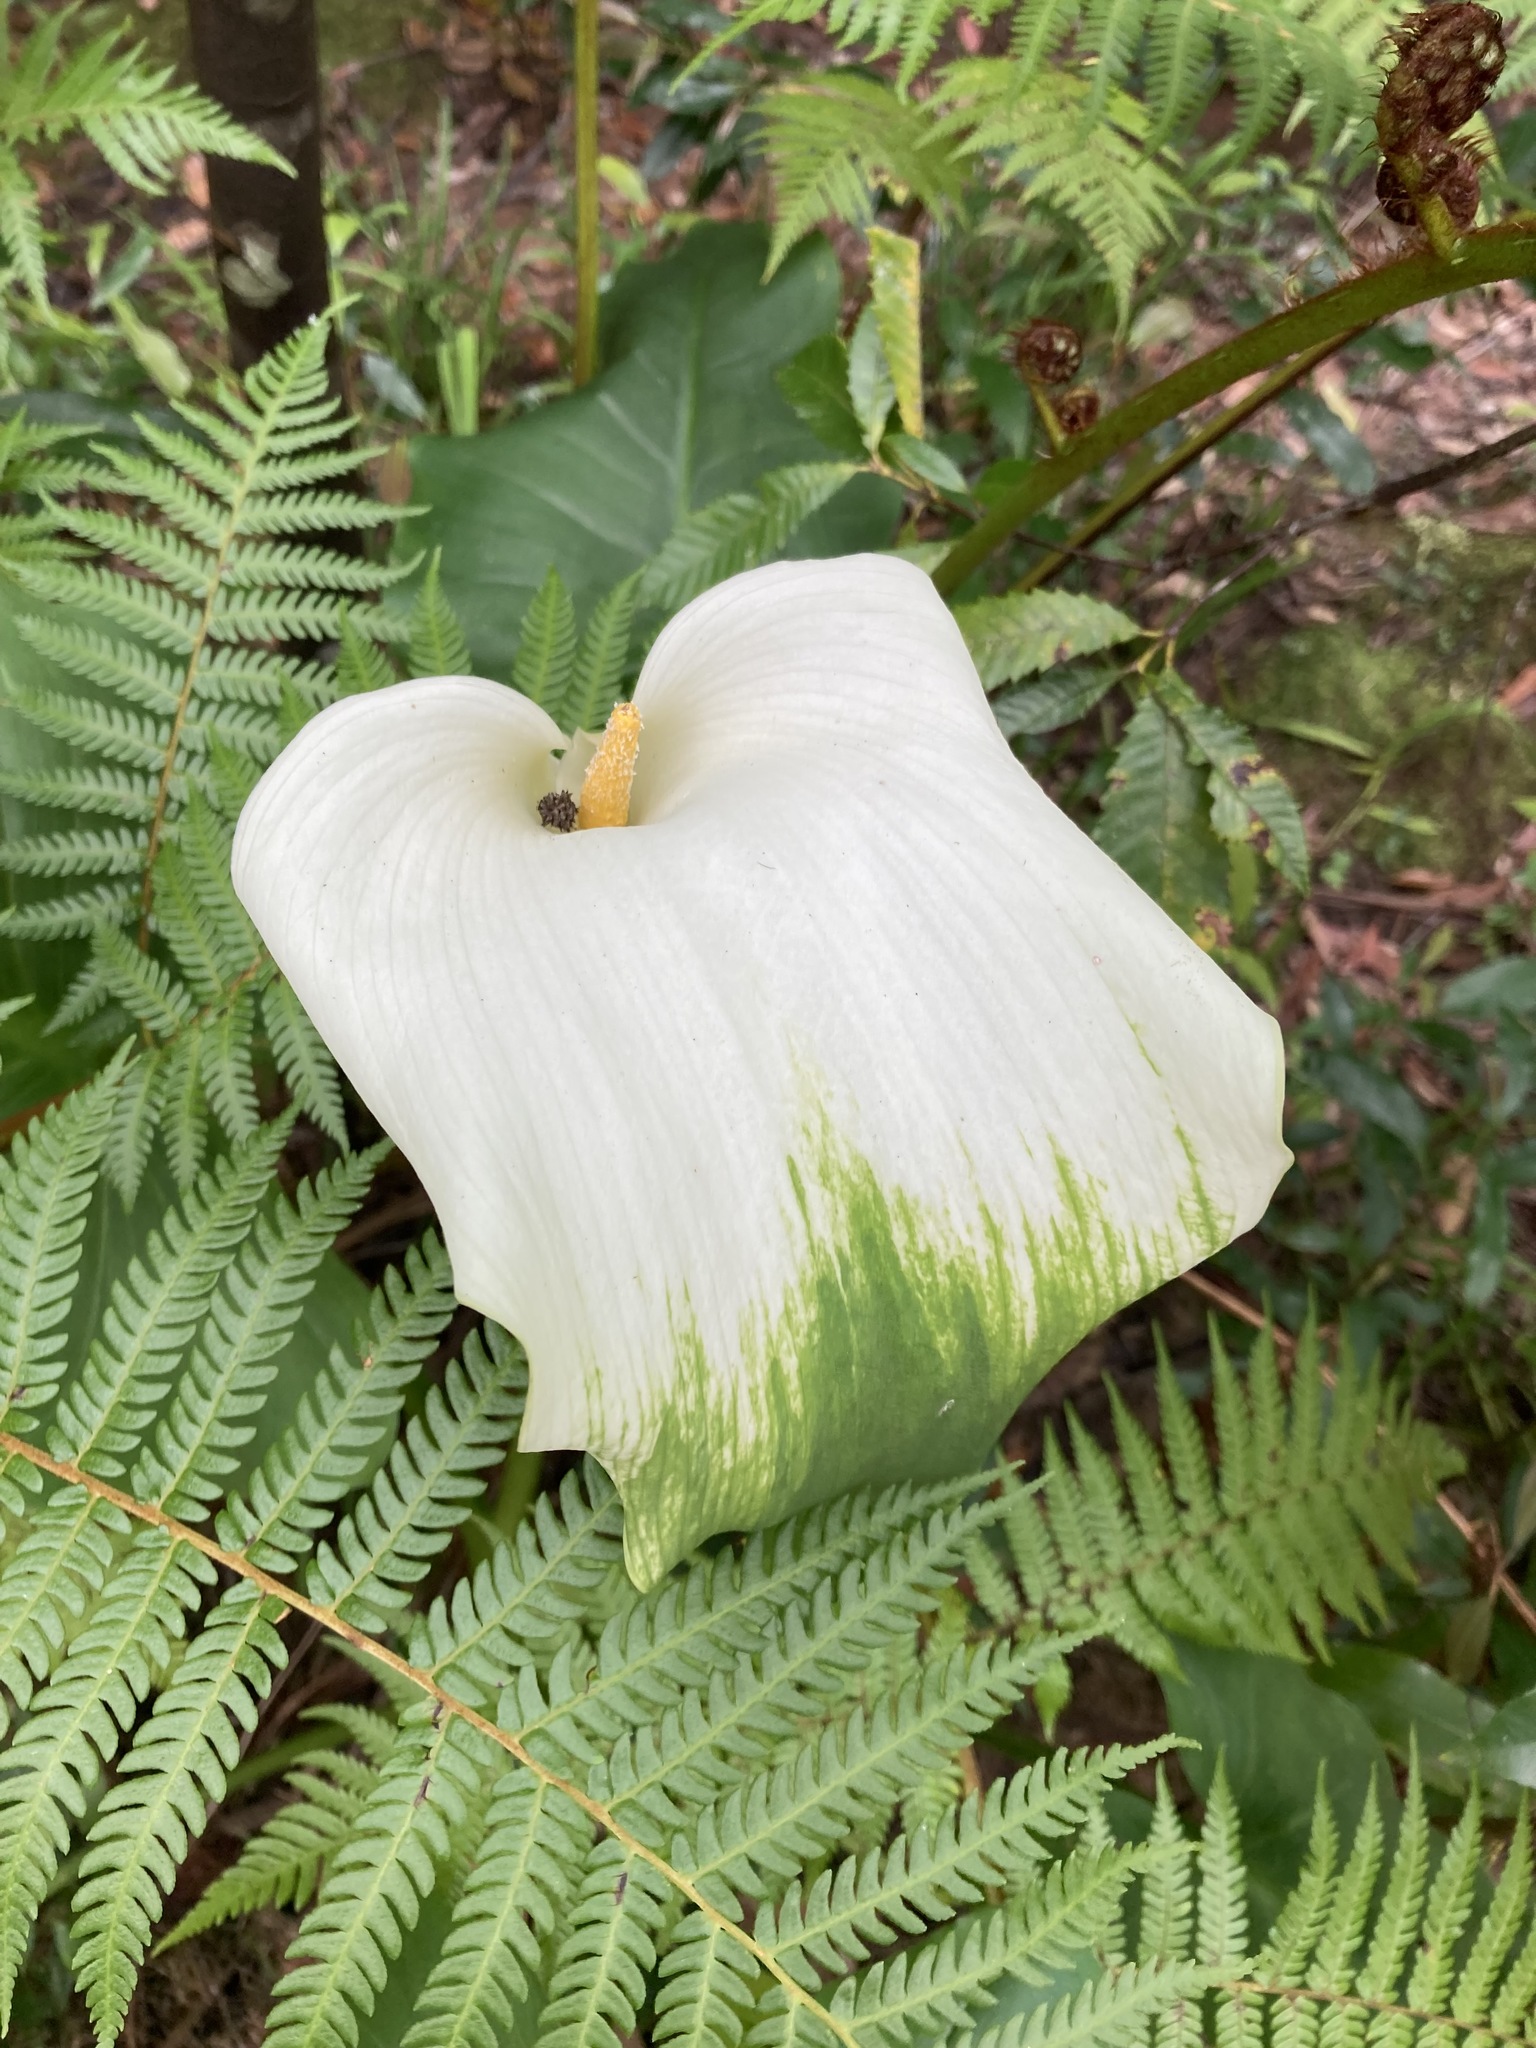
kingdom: Plantae
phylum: Tracheophyta
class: Liliopsida
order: Alismatales
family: Araceae
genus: Zantedeschia
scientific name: Zantedeschia aethiopica
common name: Altar-lily
